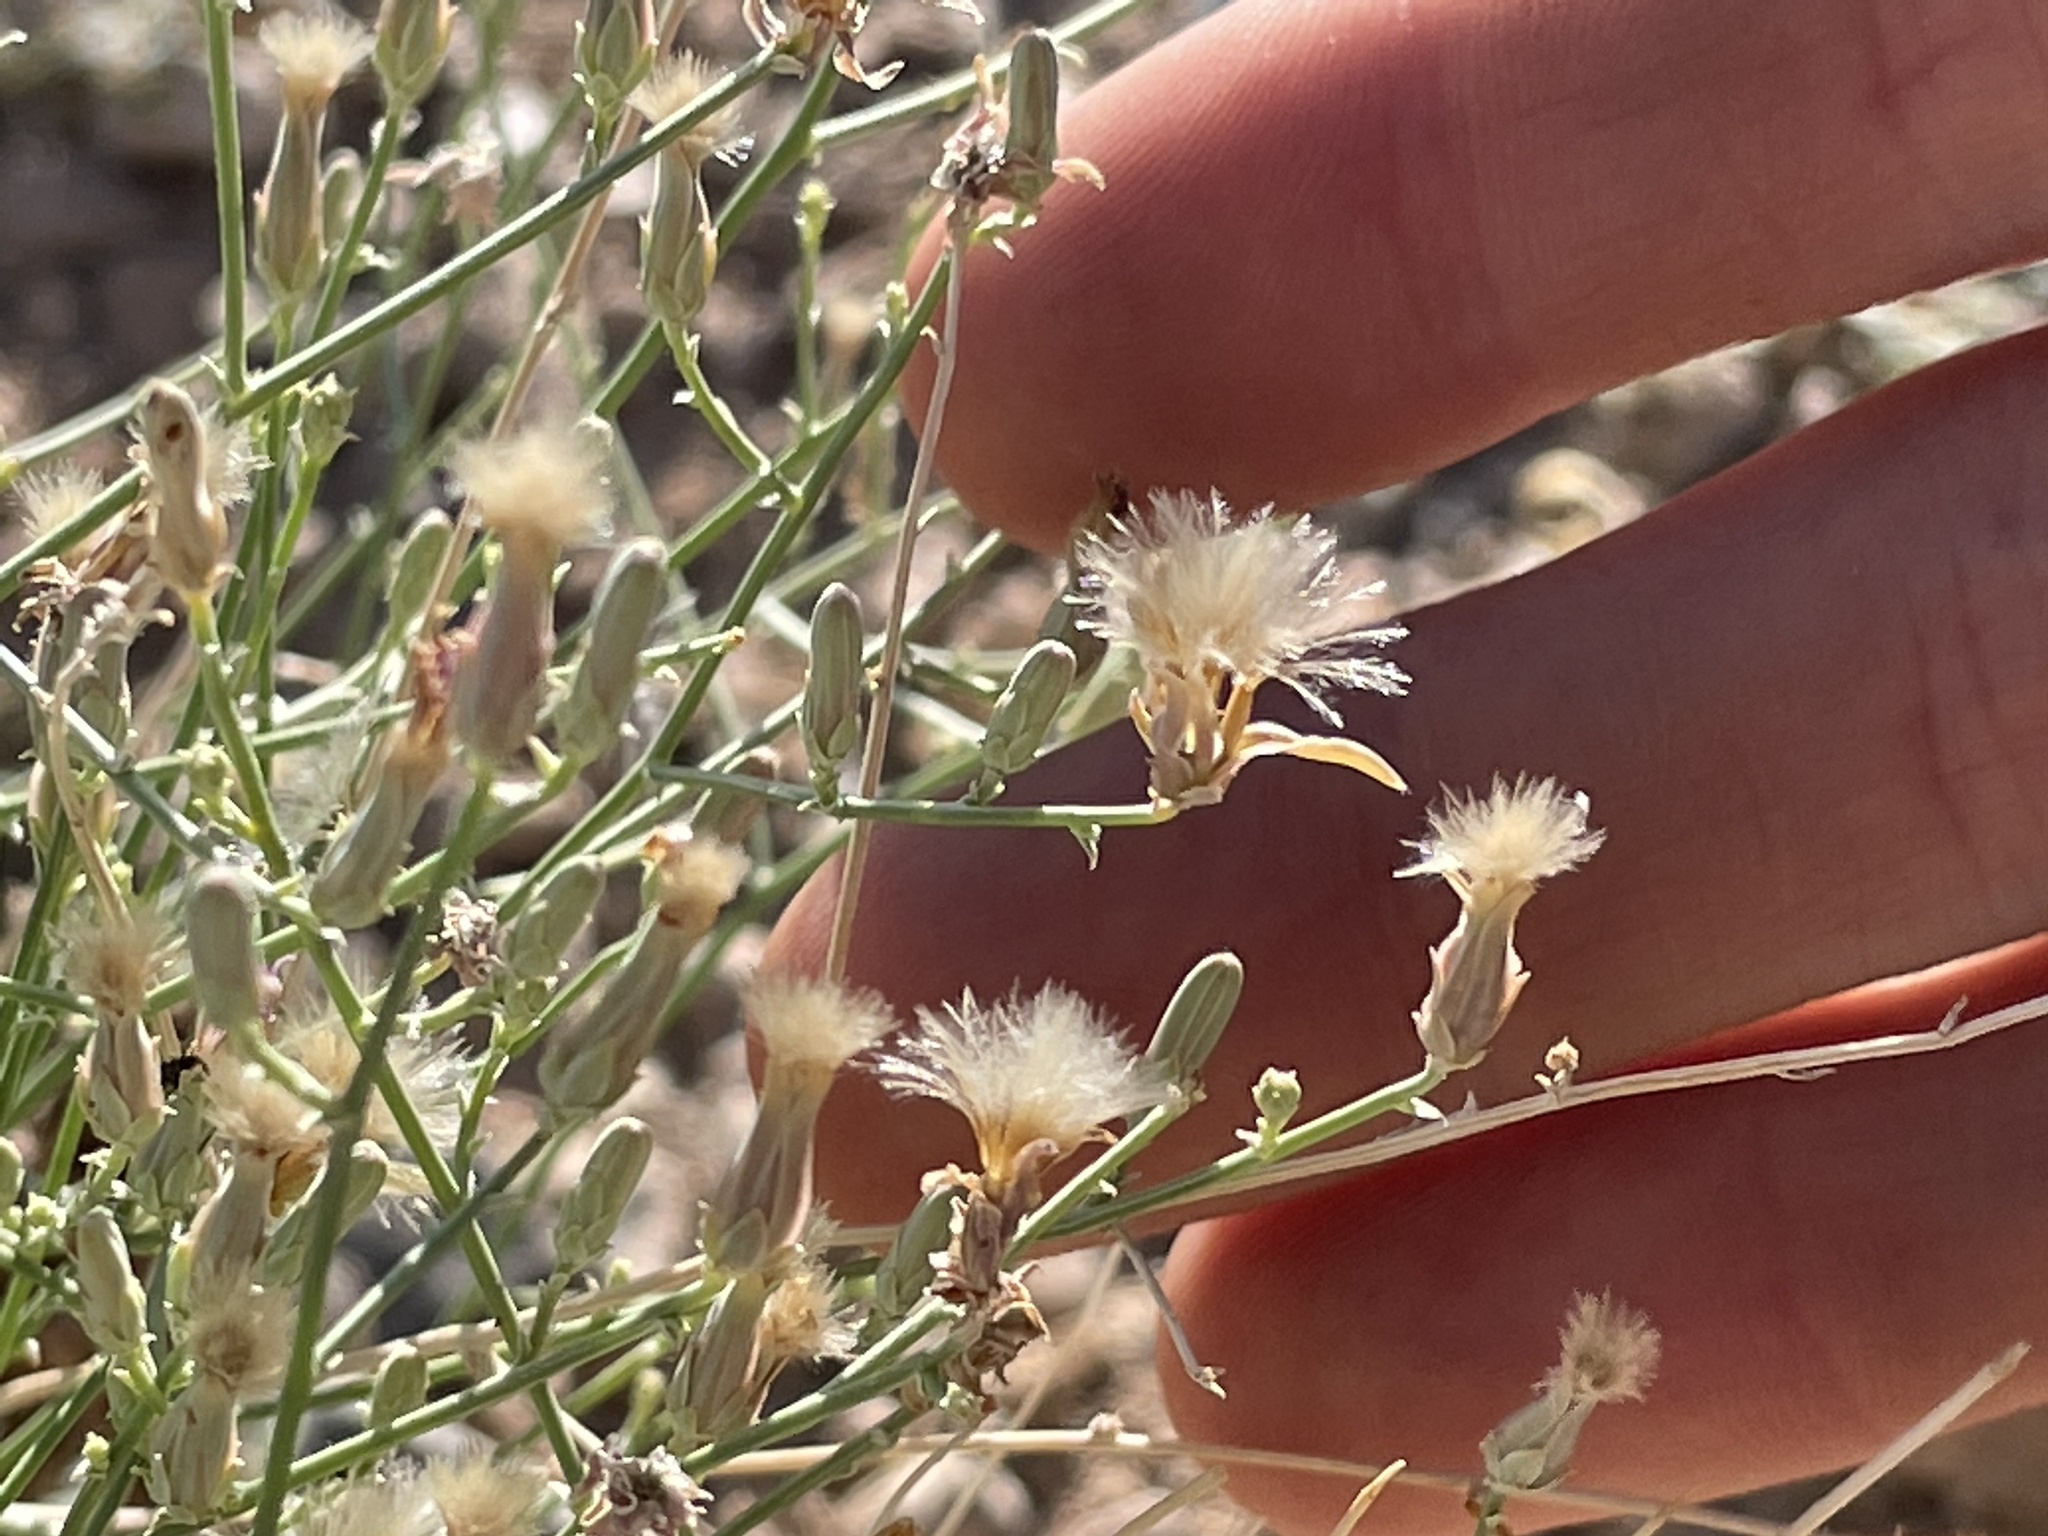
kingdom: Plantae
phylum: Tracheophyta
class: Magnoliopsida
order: Asterales
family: Asteraceae
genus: Stephanomeria
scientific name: Stephanomeria pauciflora
